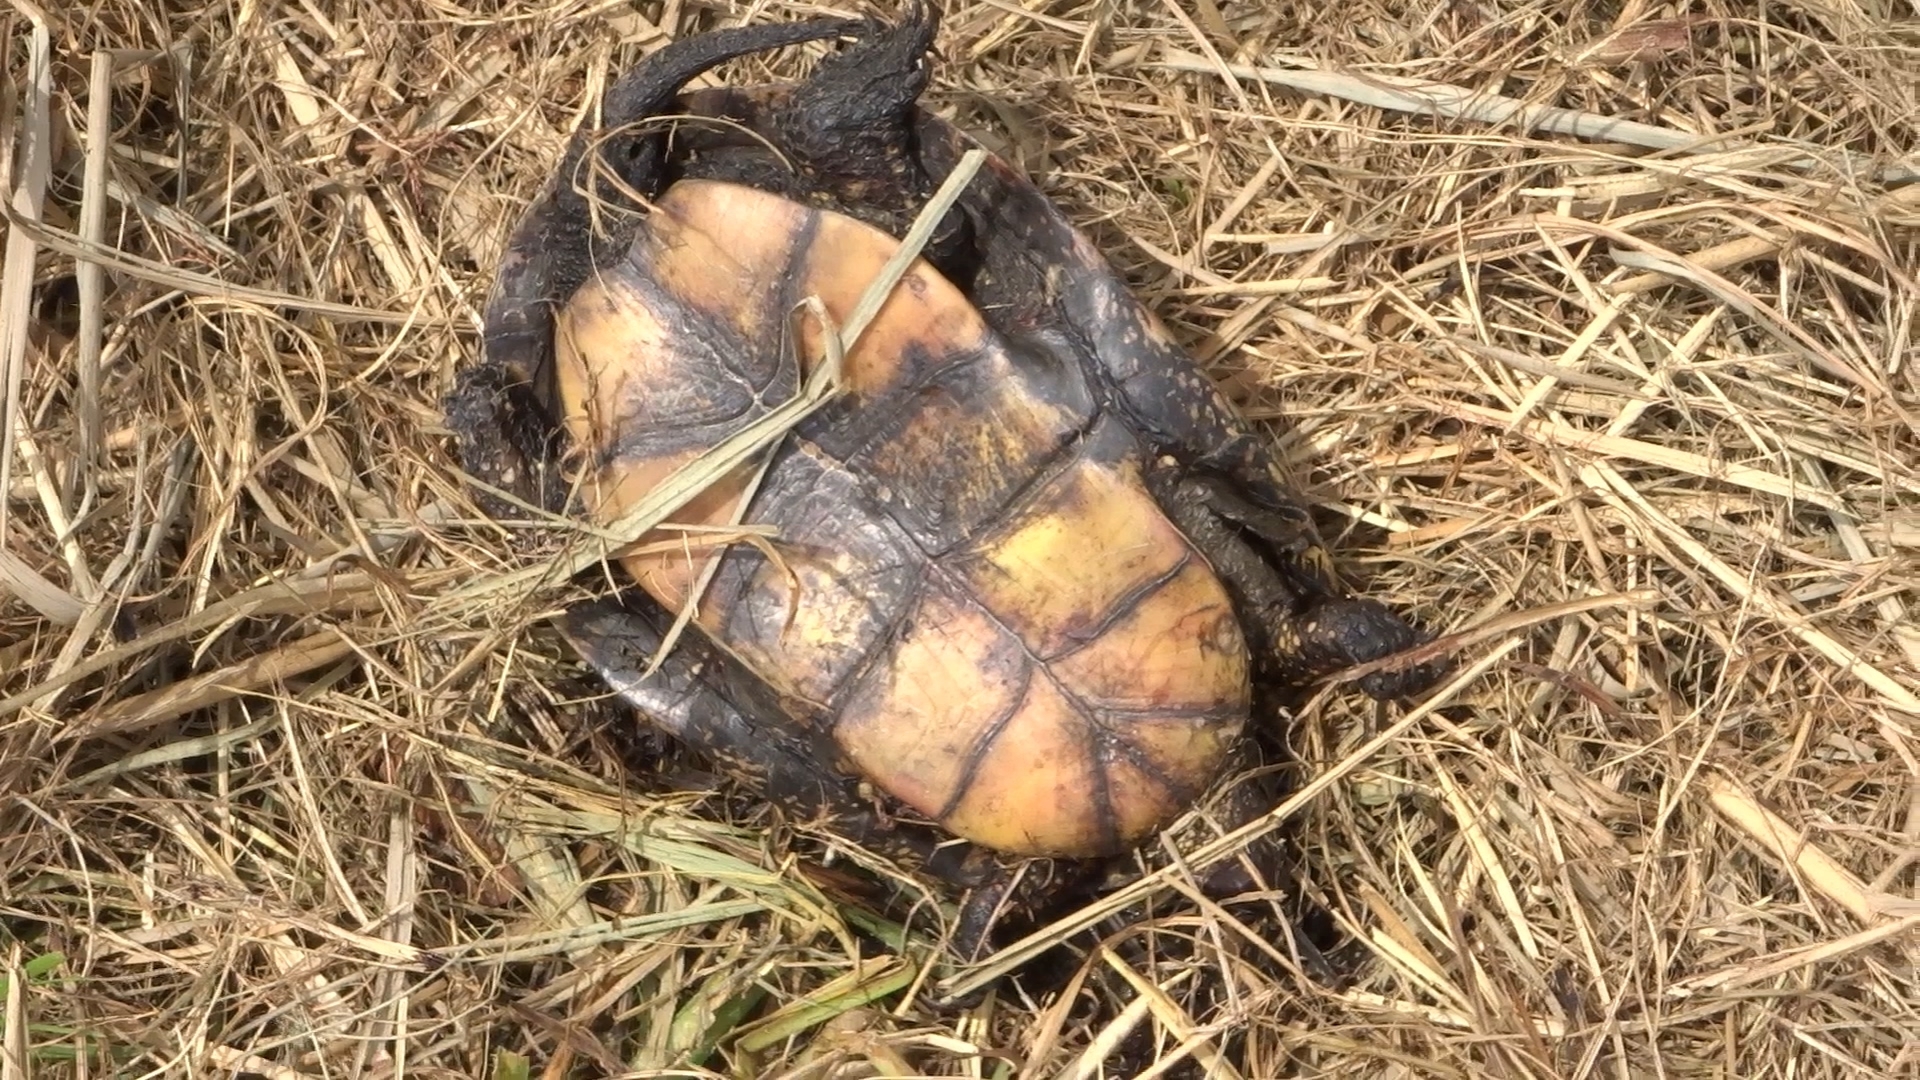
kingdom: Animalia
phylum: Chordata
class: Testudines
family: Emydidae
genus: Emys
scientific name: Emys orbicularis
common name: European pond turtle
